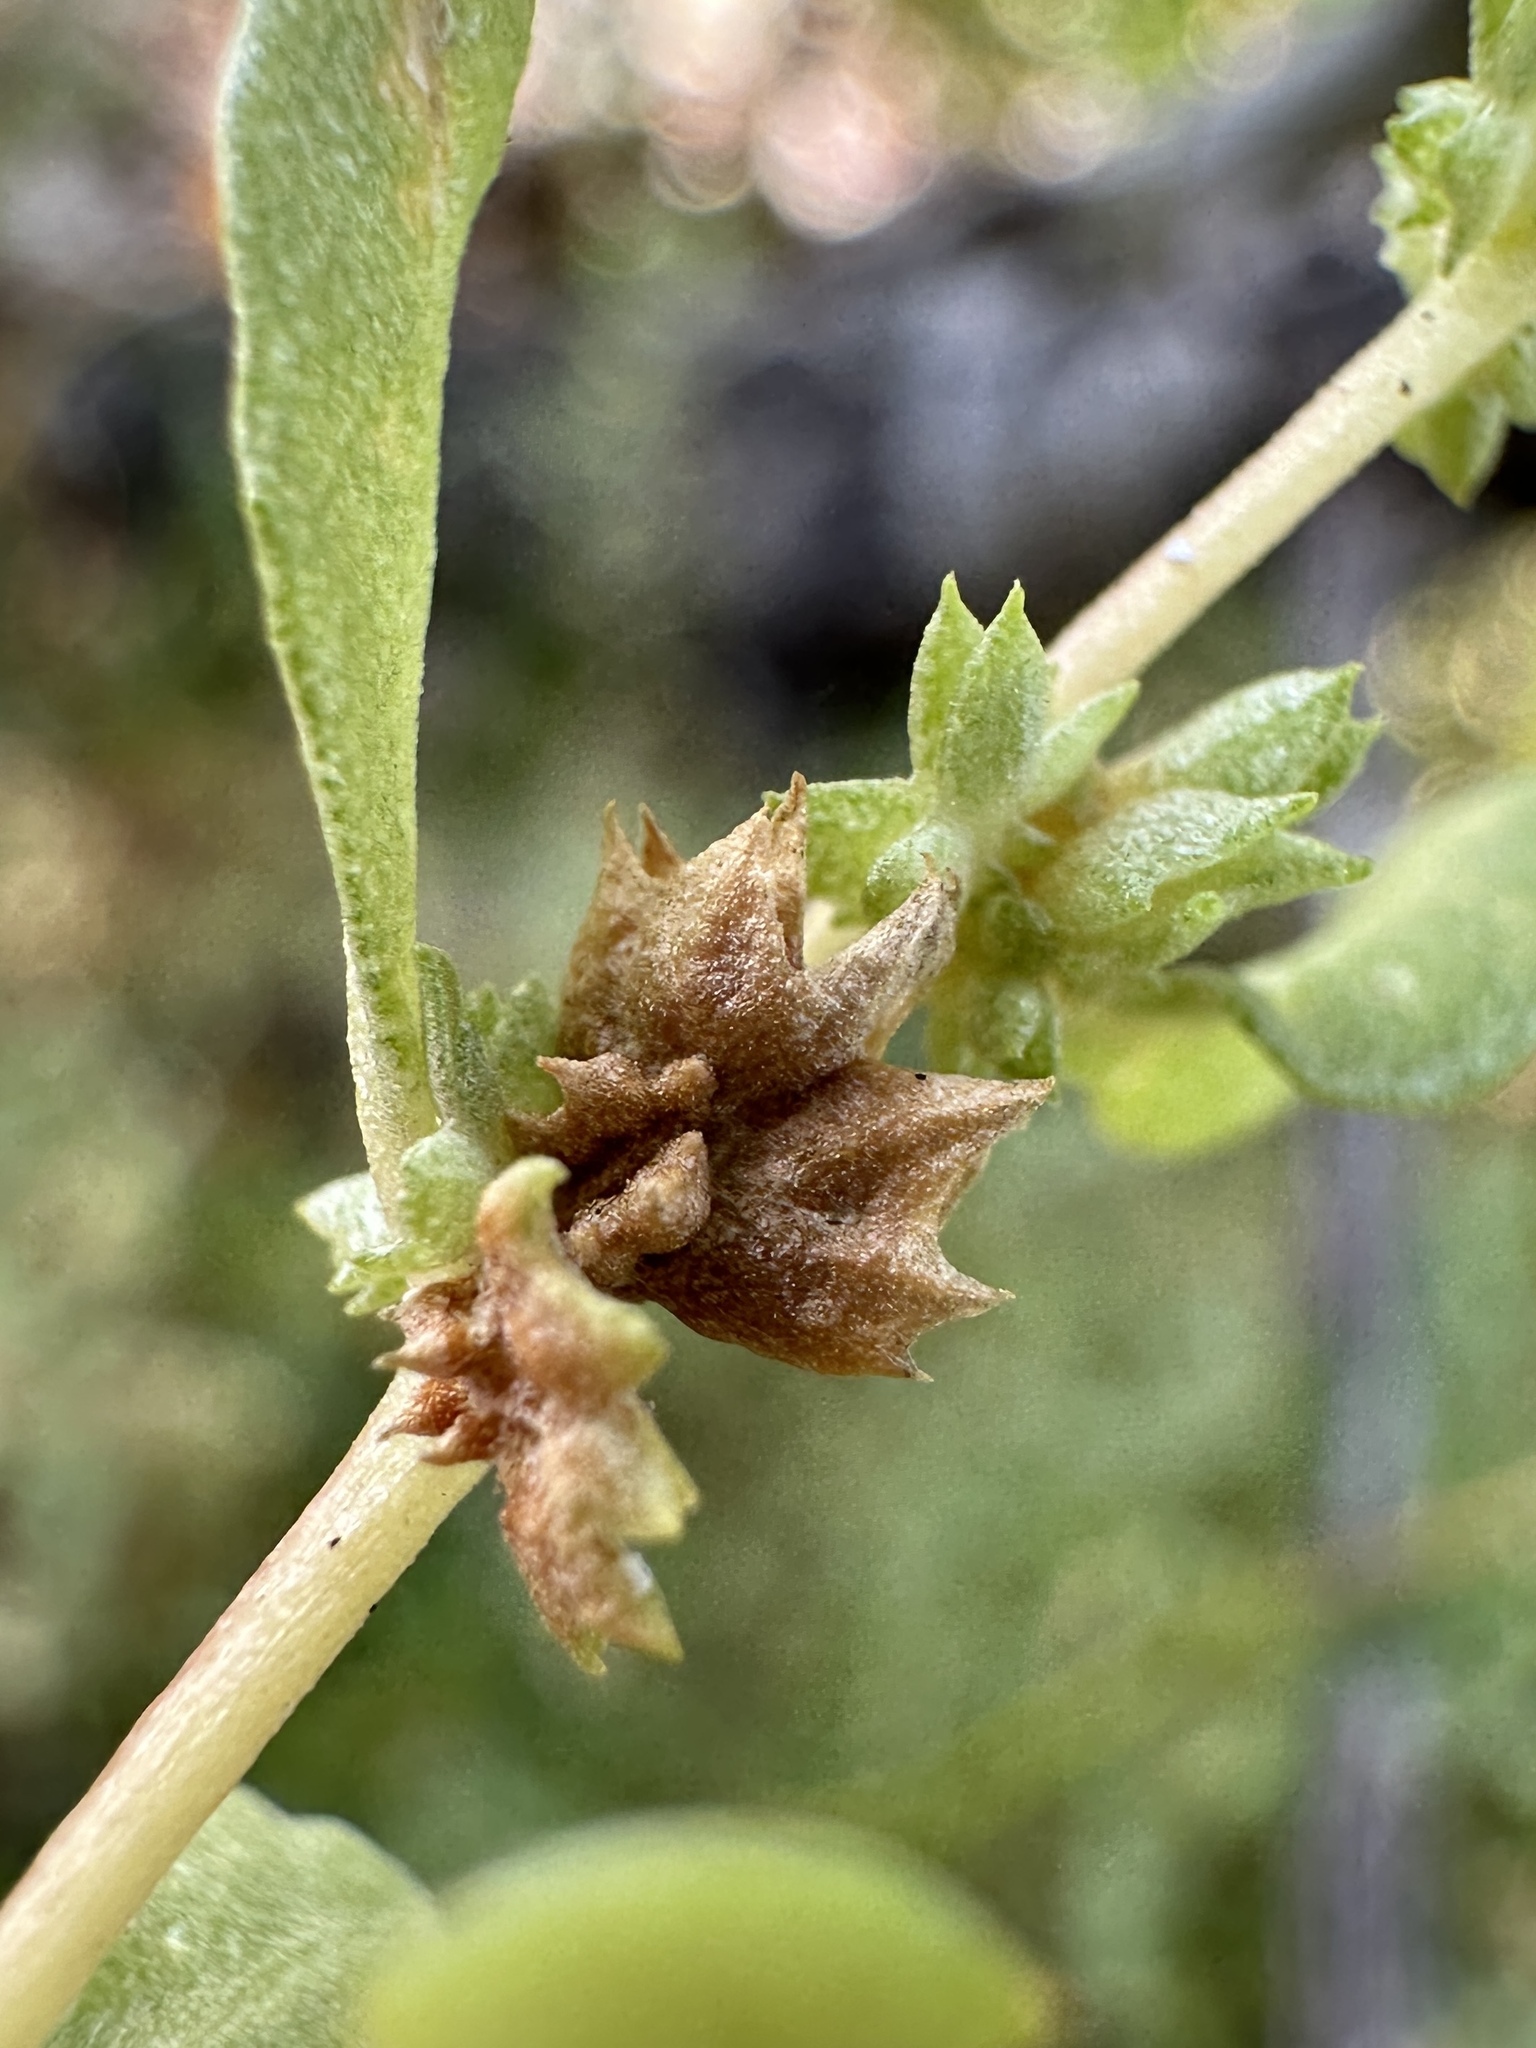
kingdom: Plantae
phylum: Tracheophyta
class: Magnoliopsida
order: Caryophyllales
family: Amaranthaceae
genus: Atriplex
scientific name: Atriplex cristata
